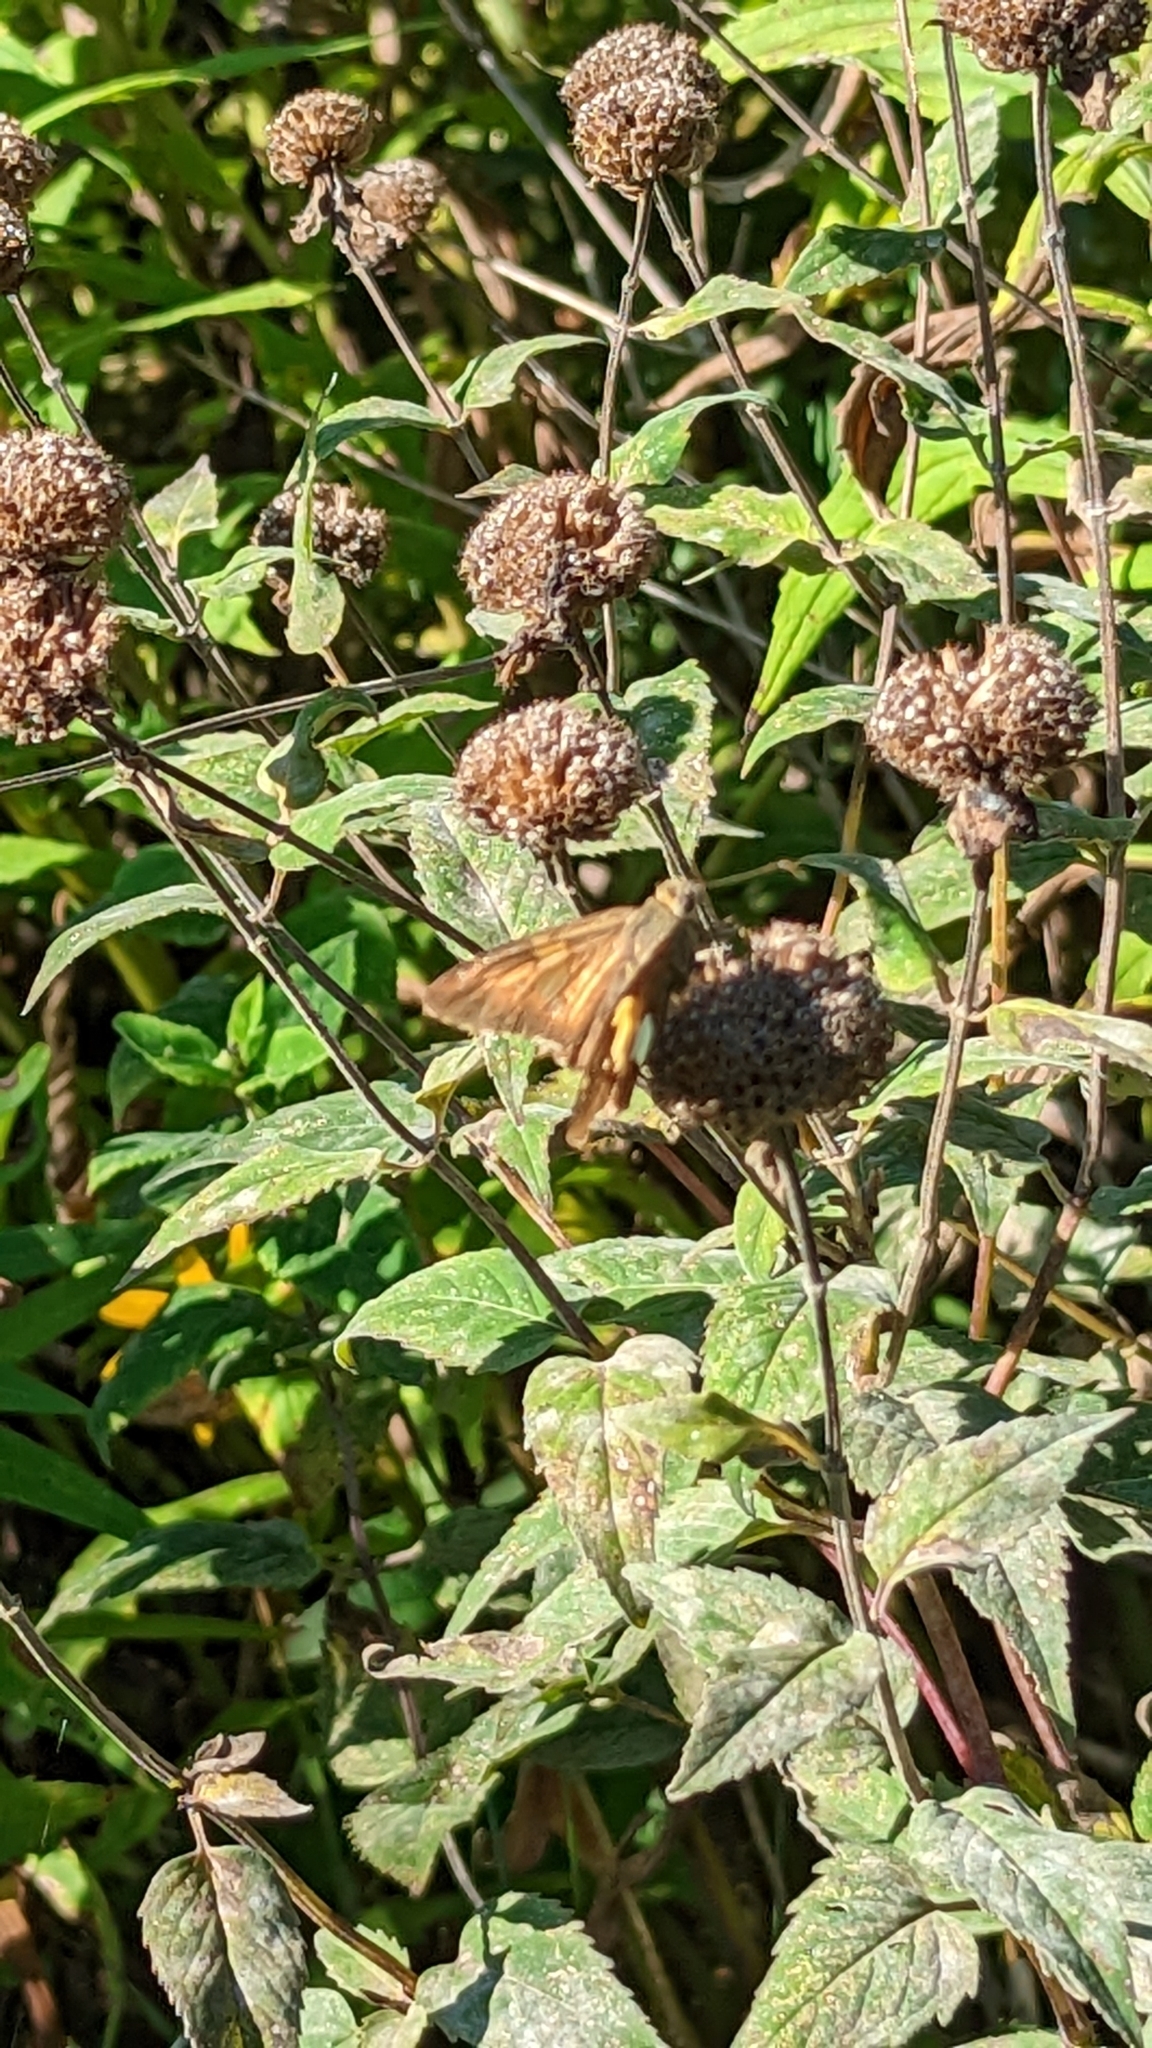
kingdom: Animalia
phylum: Arthropoda
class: Insecta
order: Lepidoptera
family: Hesperiidae
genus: Epargyreus
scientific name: Epargyreus clarus
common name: Silver-spotted skipper
